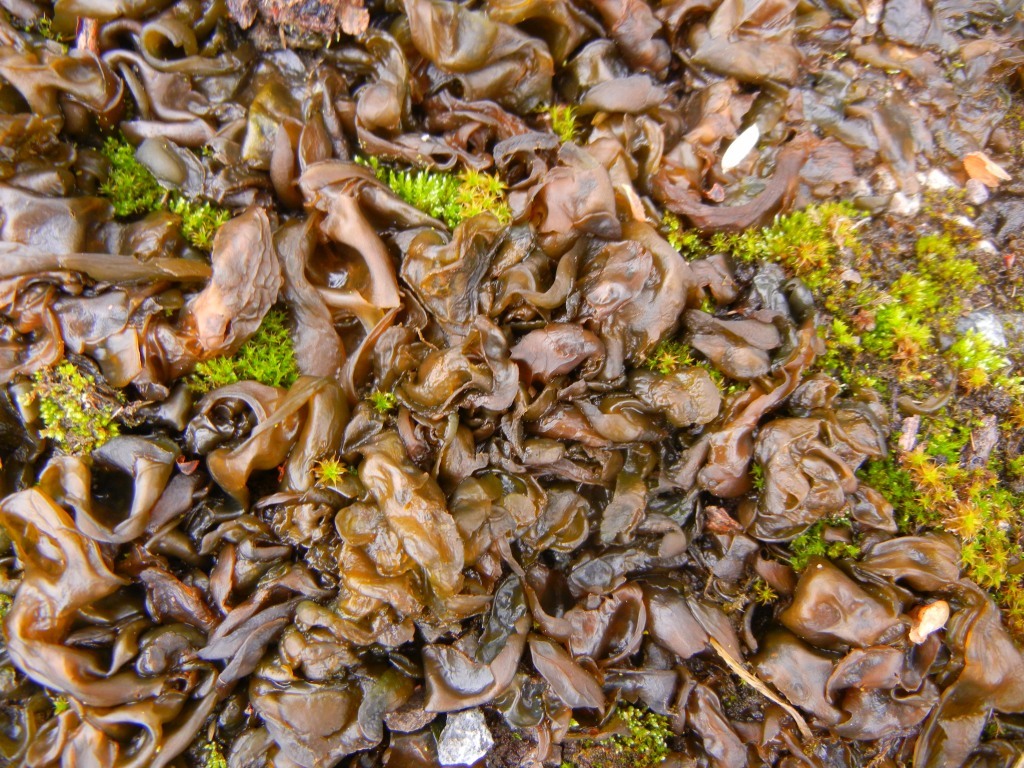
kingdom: Bacteria
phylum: Cyanobacteria
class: Cyanobacteriia
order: Cyanobacteriales
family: Nostocaceae
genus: Nostoc
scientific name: Nostoc commune
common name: Star jelly
